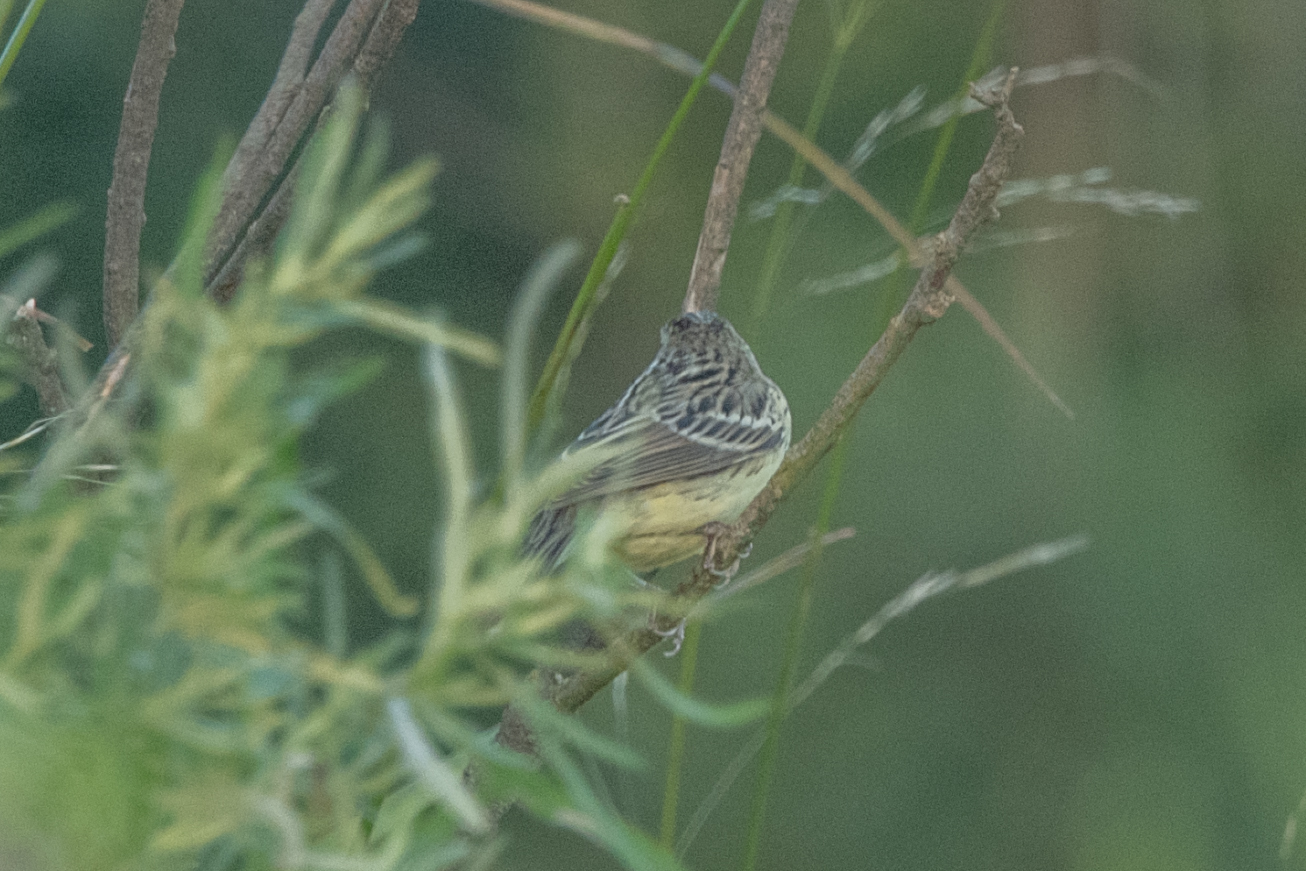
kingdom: Animalia
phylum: Chordata
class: Aves
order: Passeriformes
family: Emberizidae
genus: Emberiza
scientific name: Emberiza spodocephala
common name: Black-faced bunting
